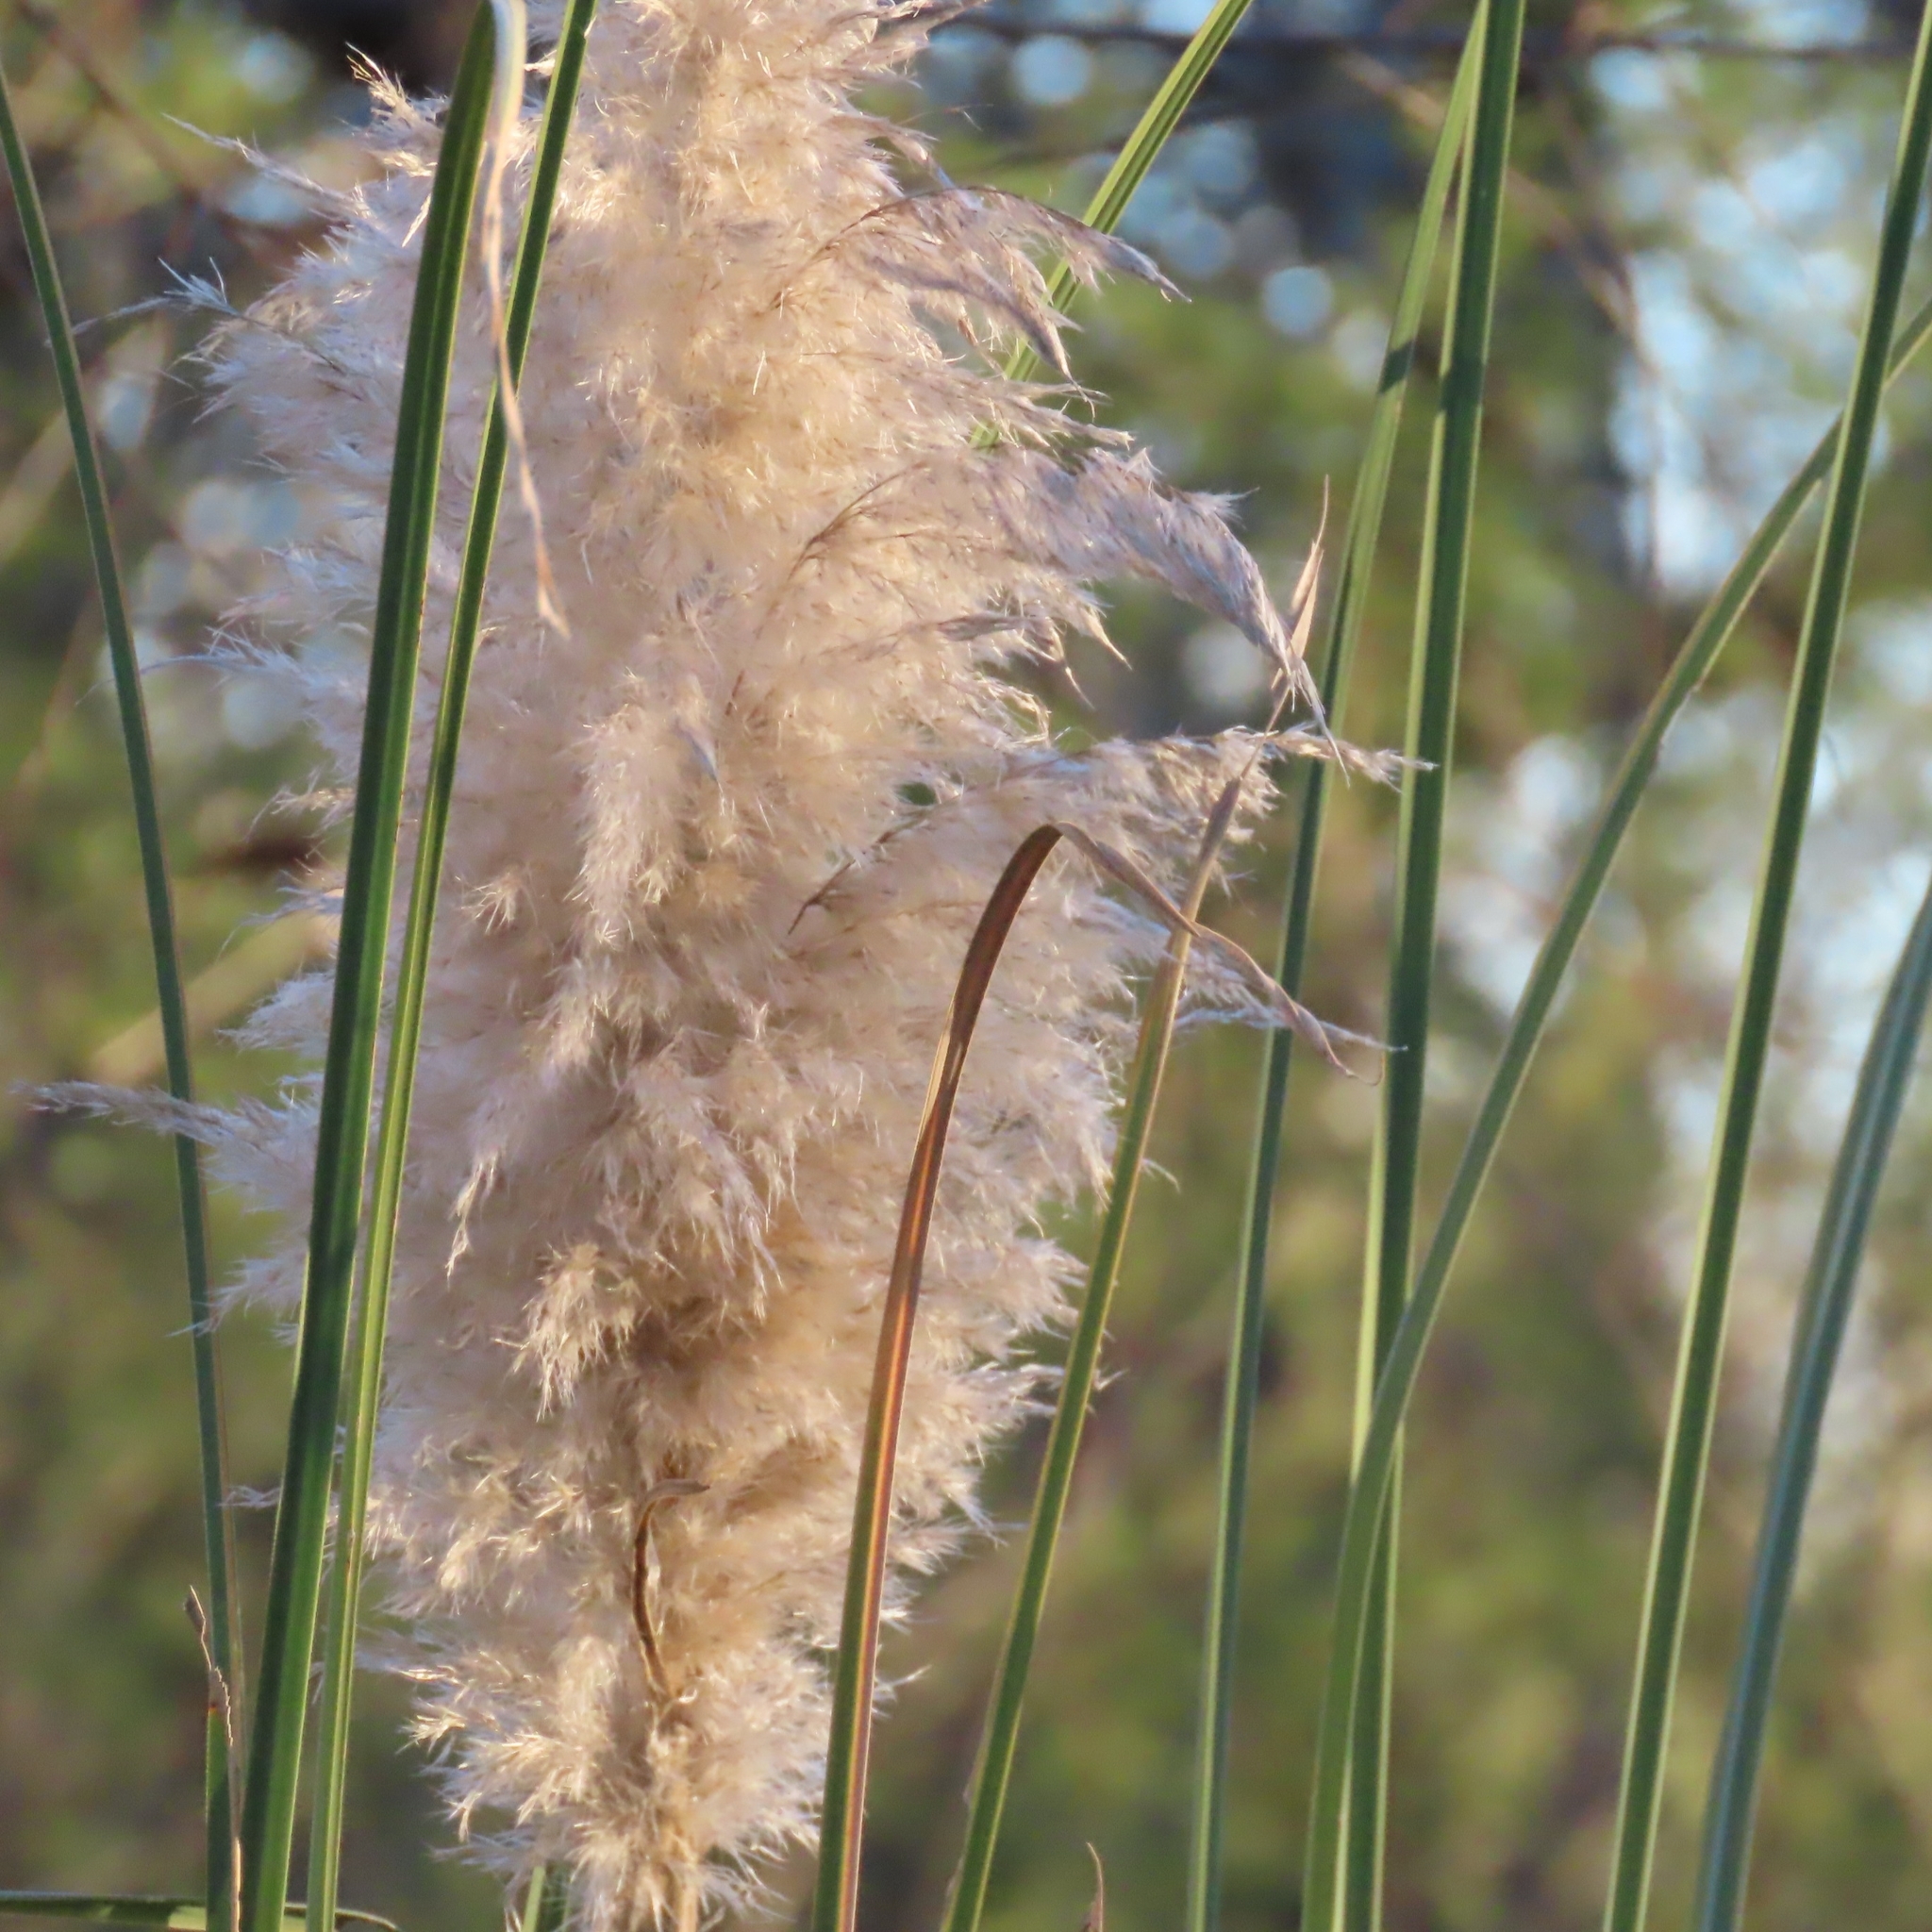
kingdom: Plantae
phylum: Tracheophyta
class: Liliopsida
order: Poales
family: Poaceae
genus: Cortaderia
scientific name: Cortaderia selloana
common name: Uruguayan pampas grass
